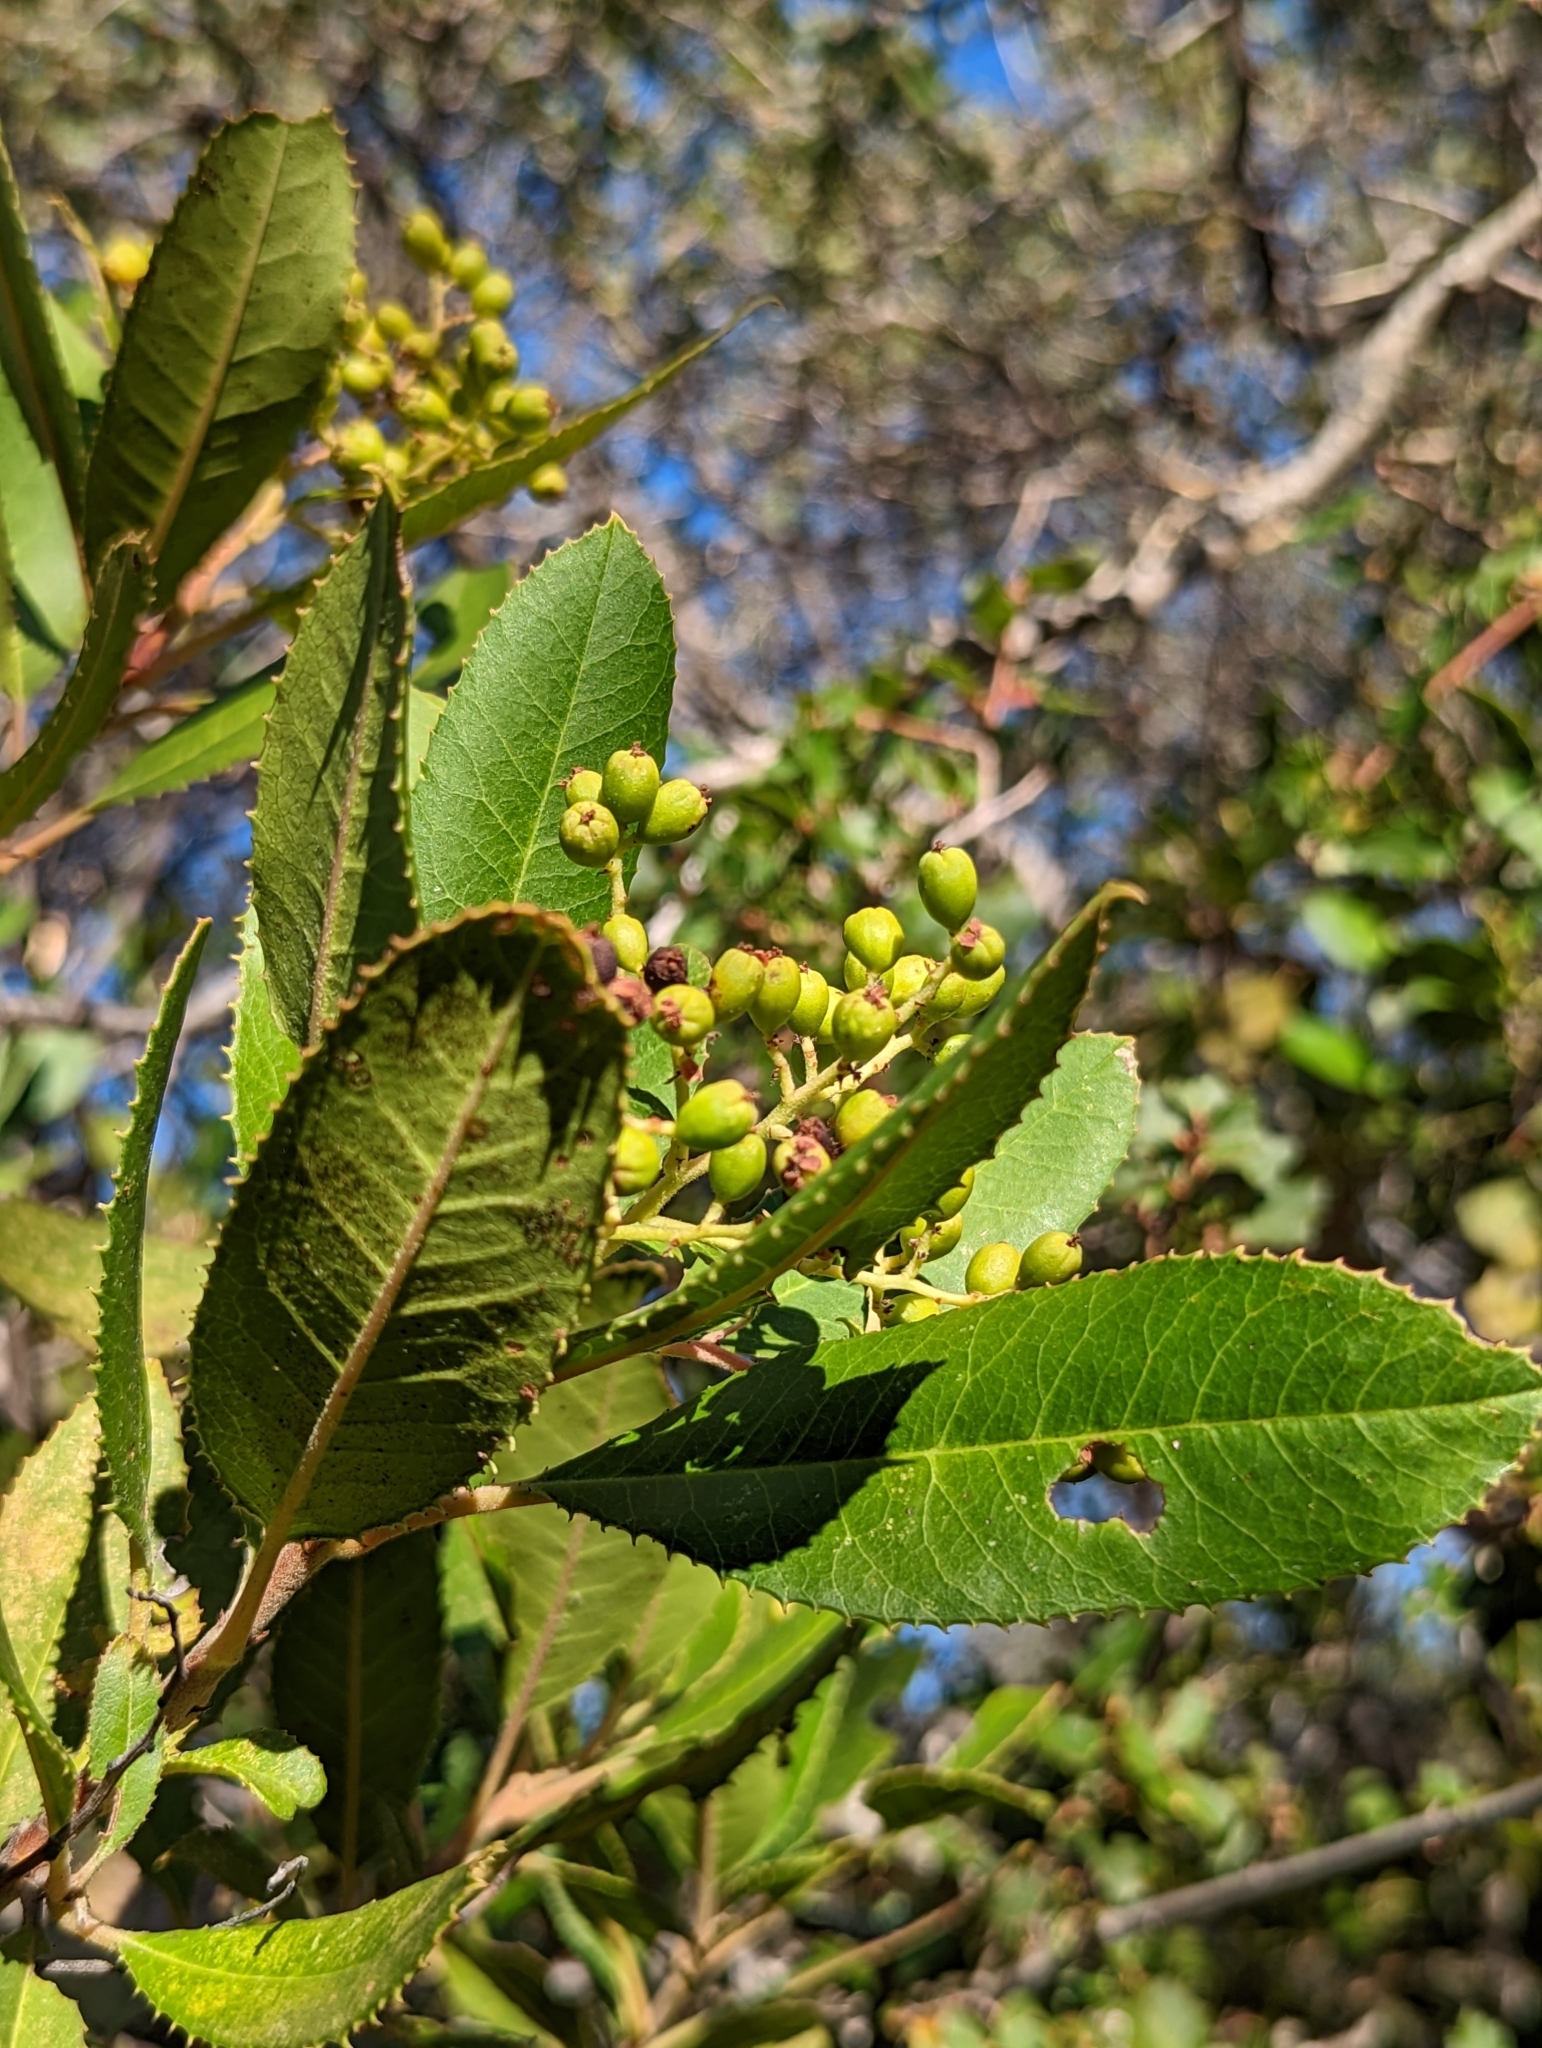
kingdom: Plantae
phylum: Tracheophyta
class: Magnoliopsida
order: Rosales
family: Rosaceae
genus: Heteromeles
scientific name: Heteromeles arbutifolia
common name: California-holly
